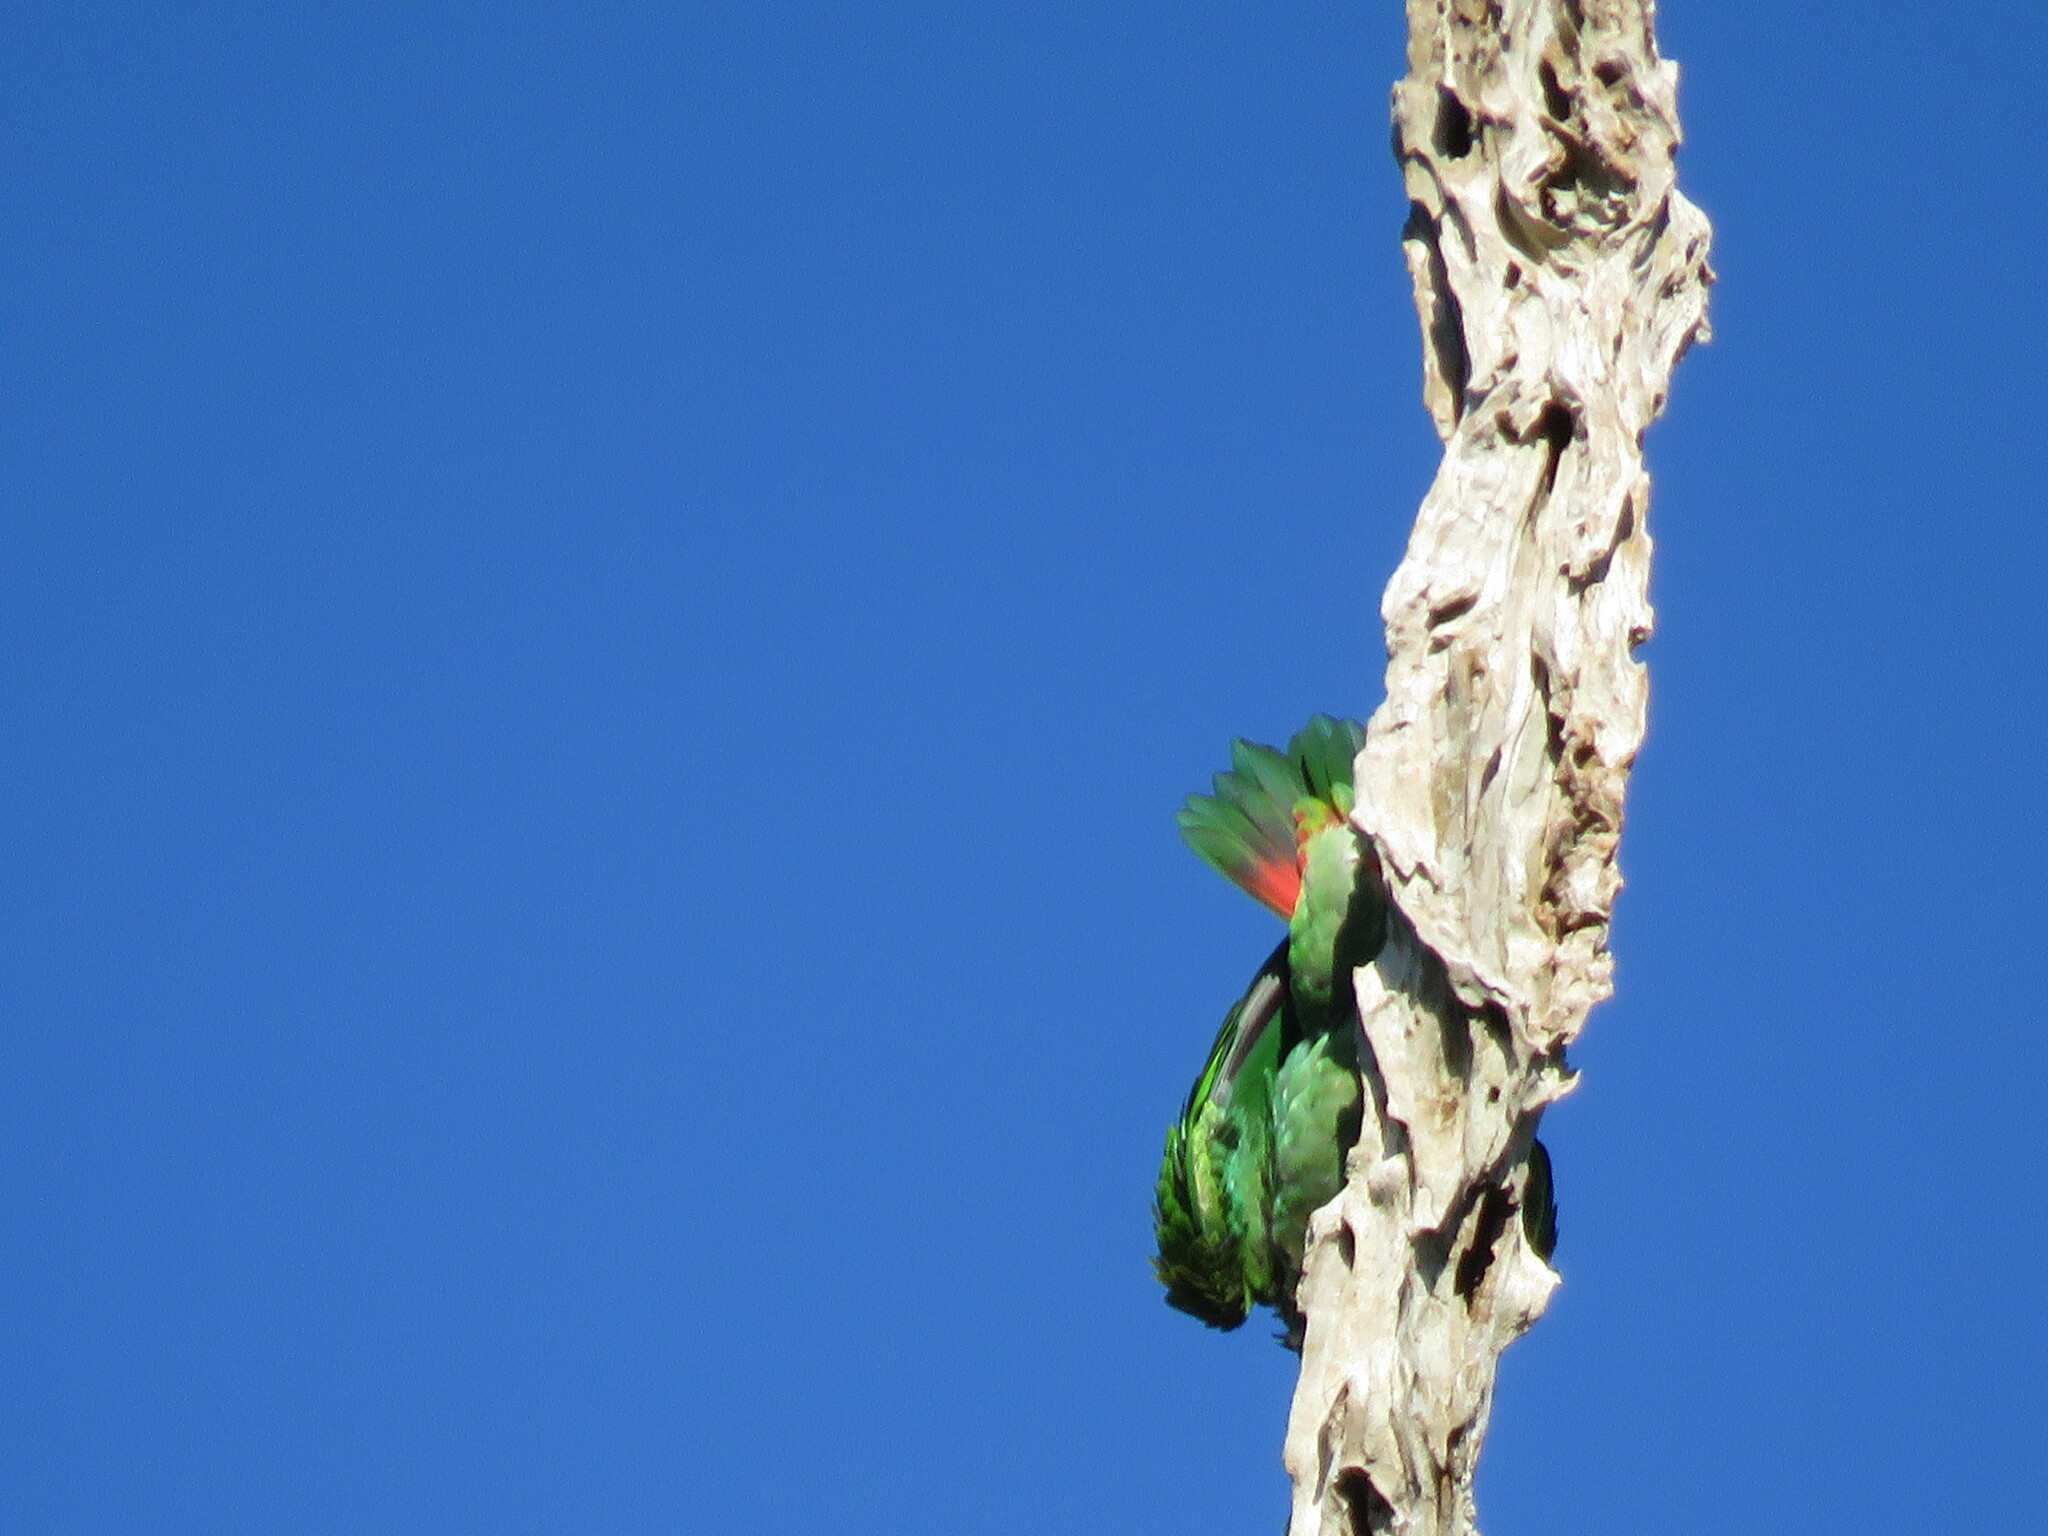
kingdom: Animalia
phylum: Chordata
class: Aves
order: Psittaciformes
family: Psittacidae
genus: Pionus
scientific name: Pionus menstruus
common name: Blue-headed parrot
